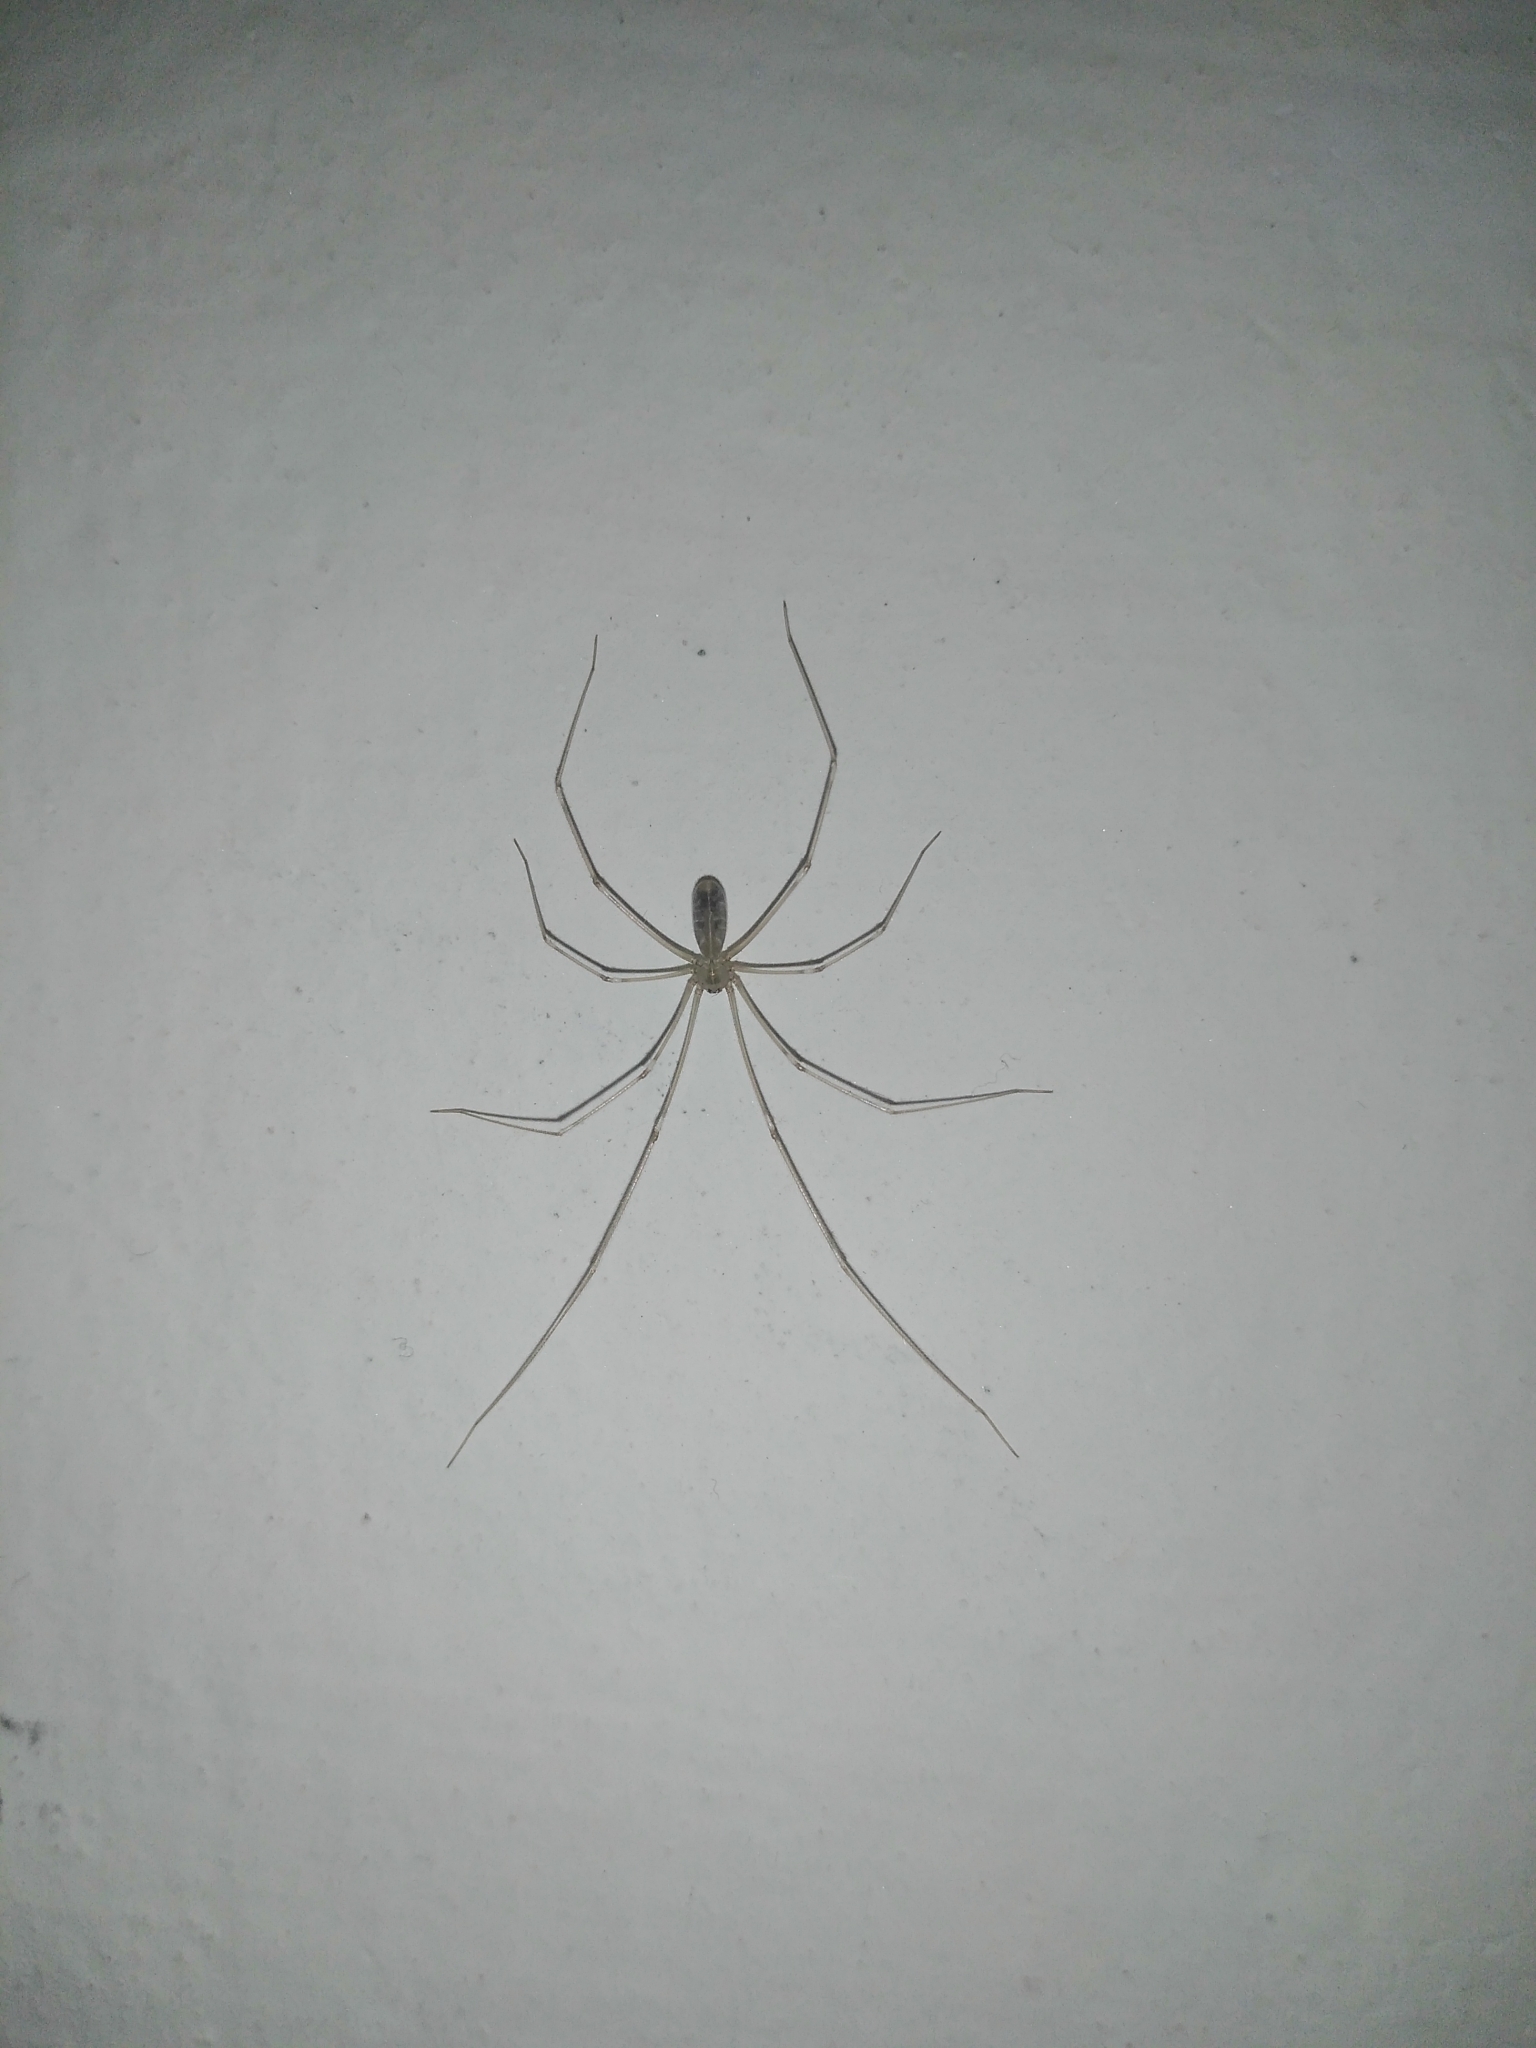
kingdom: Animalia
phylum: Arthropoda
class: Arachnida
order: Araneae
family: Pholcidae
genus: Pholcus
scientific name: Pholcus phalangioides
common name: Longbodied cellar spider
